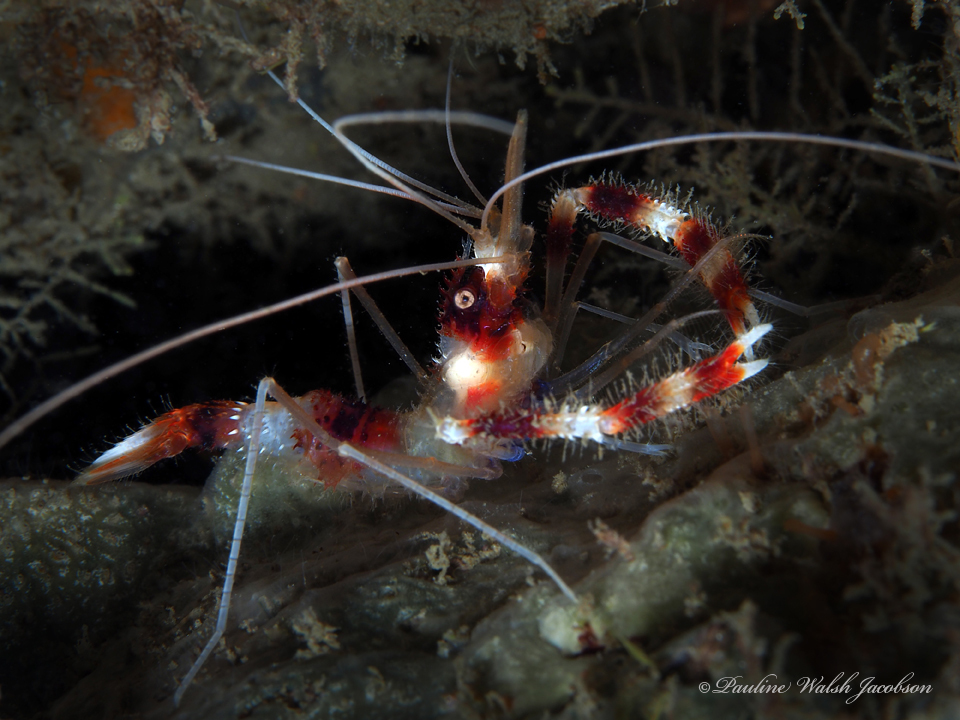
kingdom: Animalia
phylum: Arthropoda
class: Malacostraca
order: Decapoda
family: Stenopodidae
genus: Stenopus
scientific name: Stenopus hispidus
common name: Banded coral shrimp
